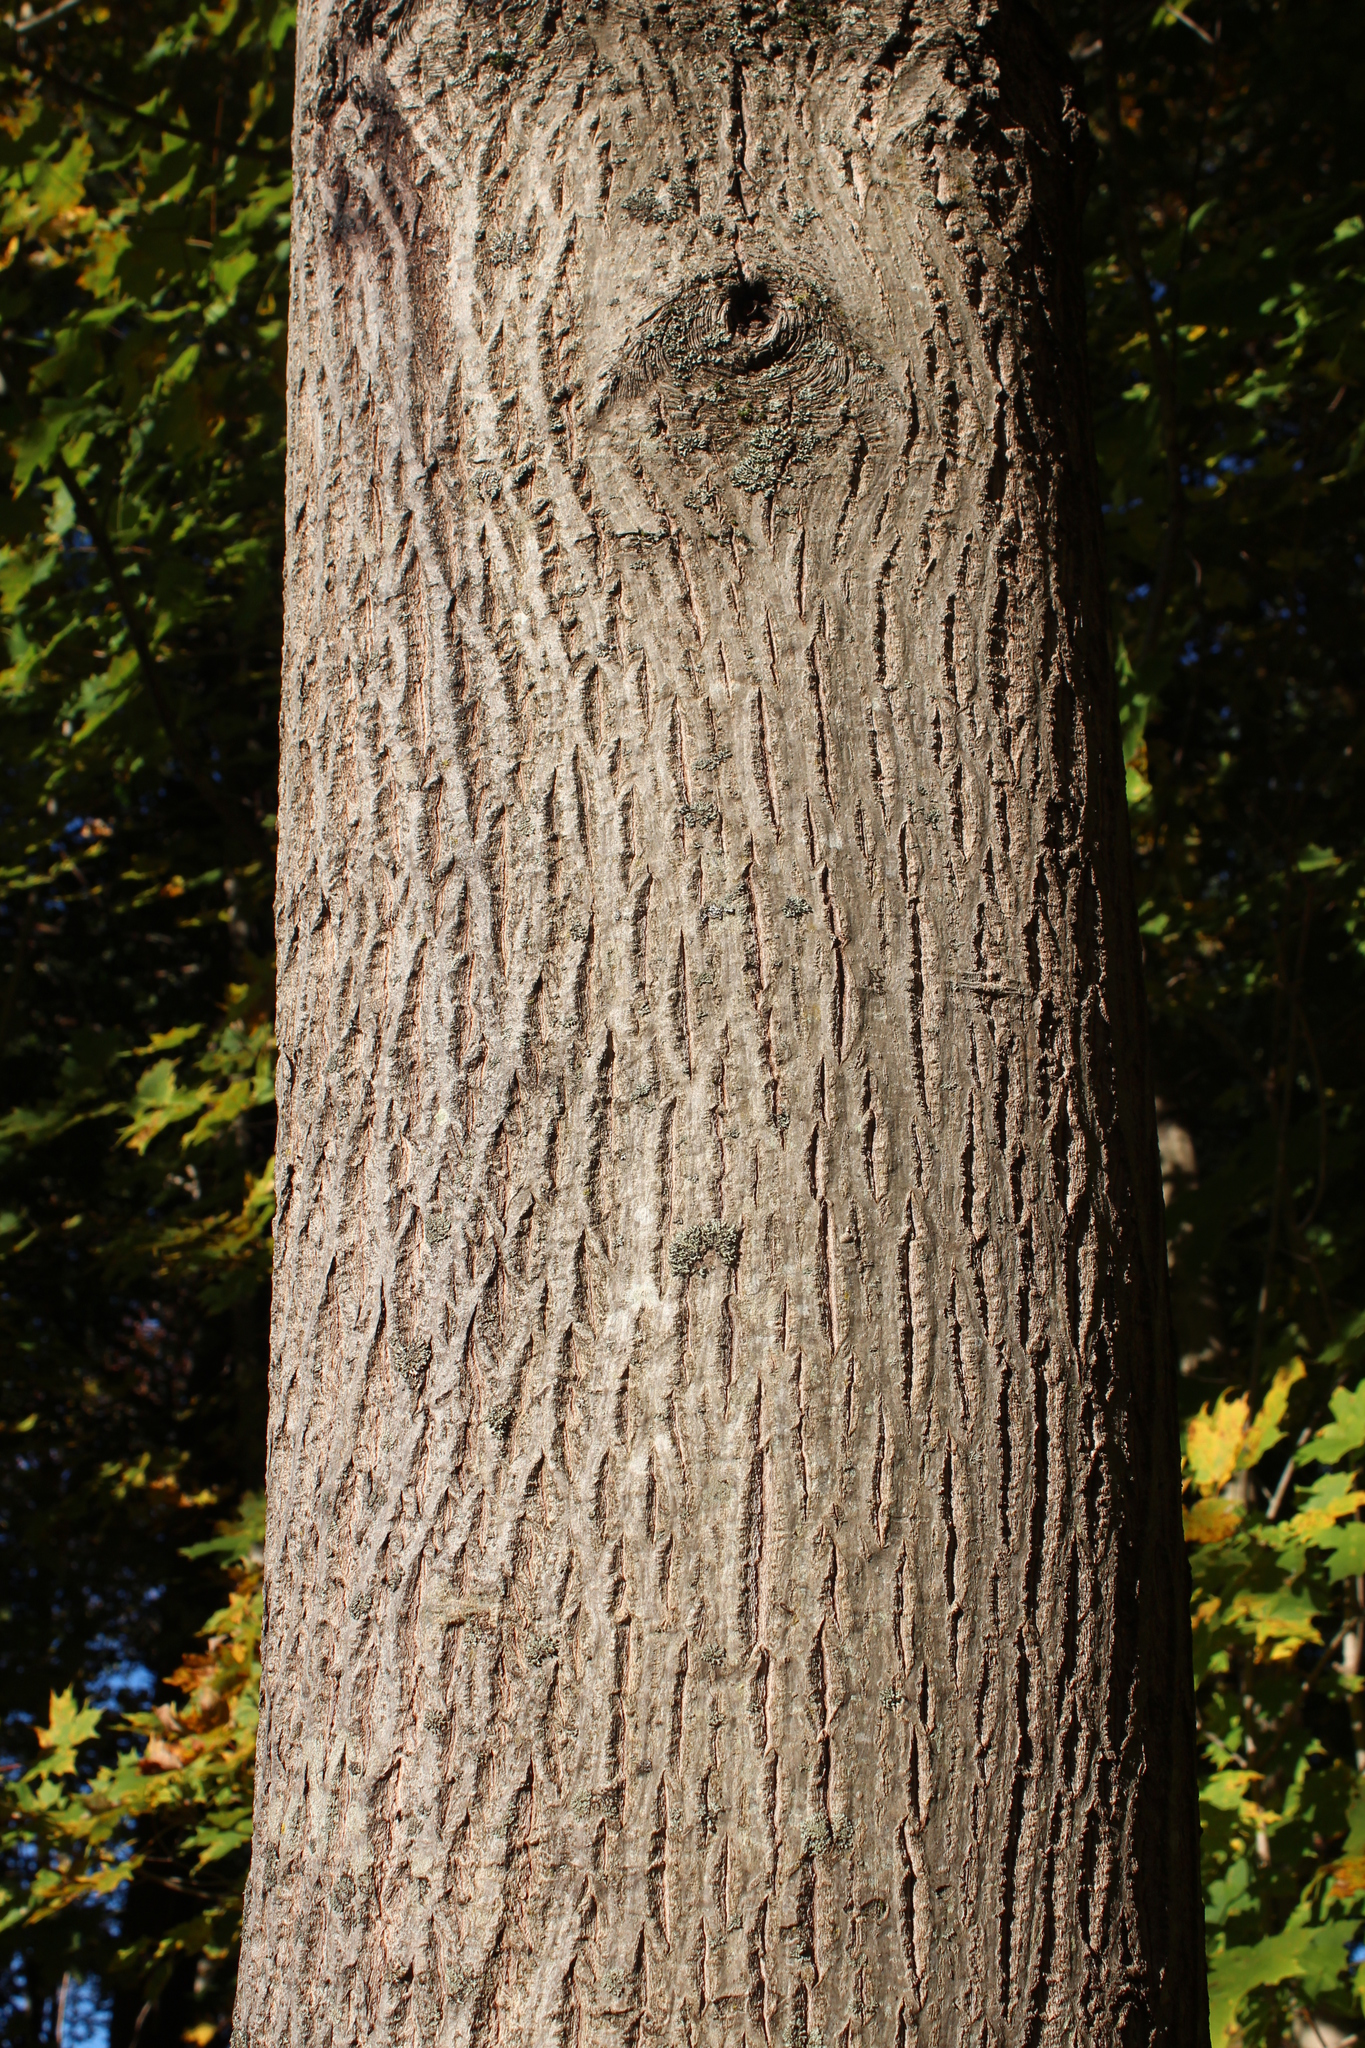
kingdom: Plantae
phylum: Tracheophyta
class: Magnoliopsida
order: Sapindales
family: Sapindaceae
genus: Acer
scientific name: Acer platanoides
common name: Norway maple
